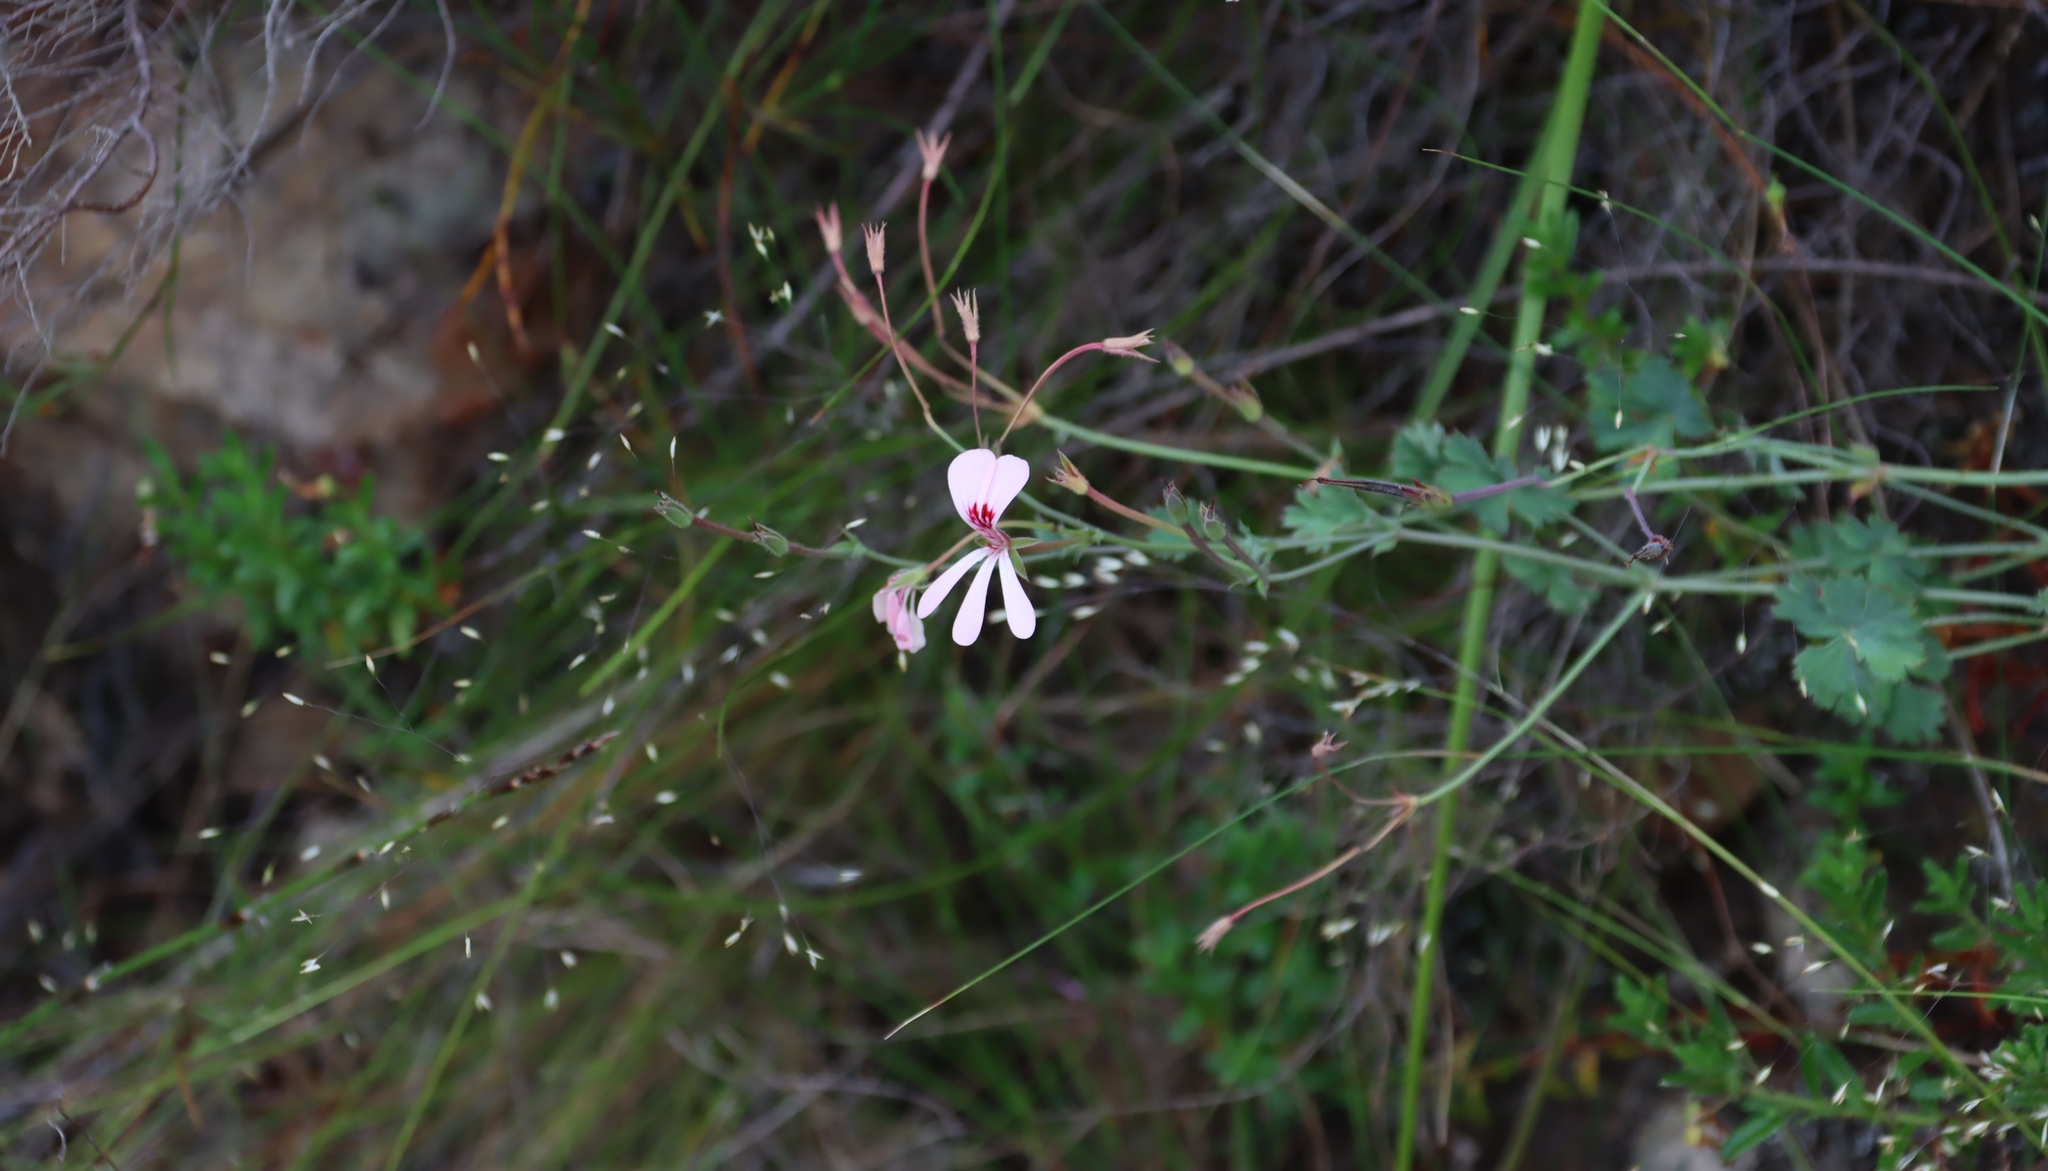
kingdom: Plantae
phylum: Tracheophyta
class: Magnoliopsida
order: Geraniales
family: Geraniaceae
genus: Pelargonium
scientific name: Pelargonium patulum
